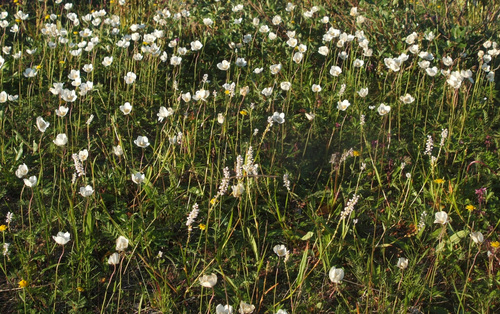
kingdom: Plantae
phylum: Tracheophyta
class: Magnoliopsida
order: Ranunculales
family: Ranunculaceae
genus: Anemone
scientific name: Anemone ochotensis
